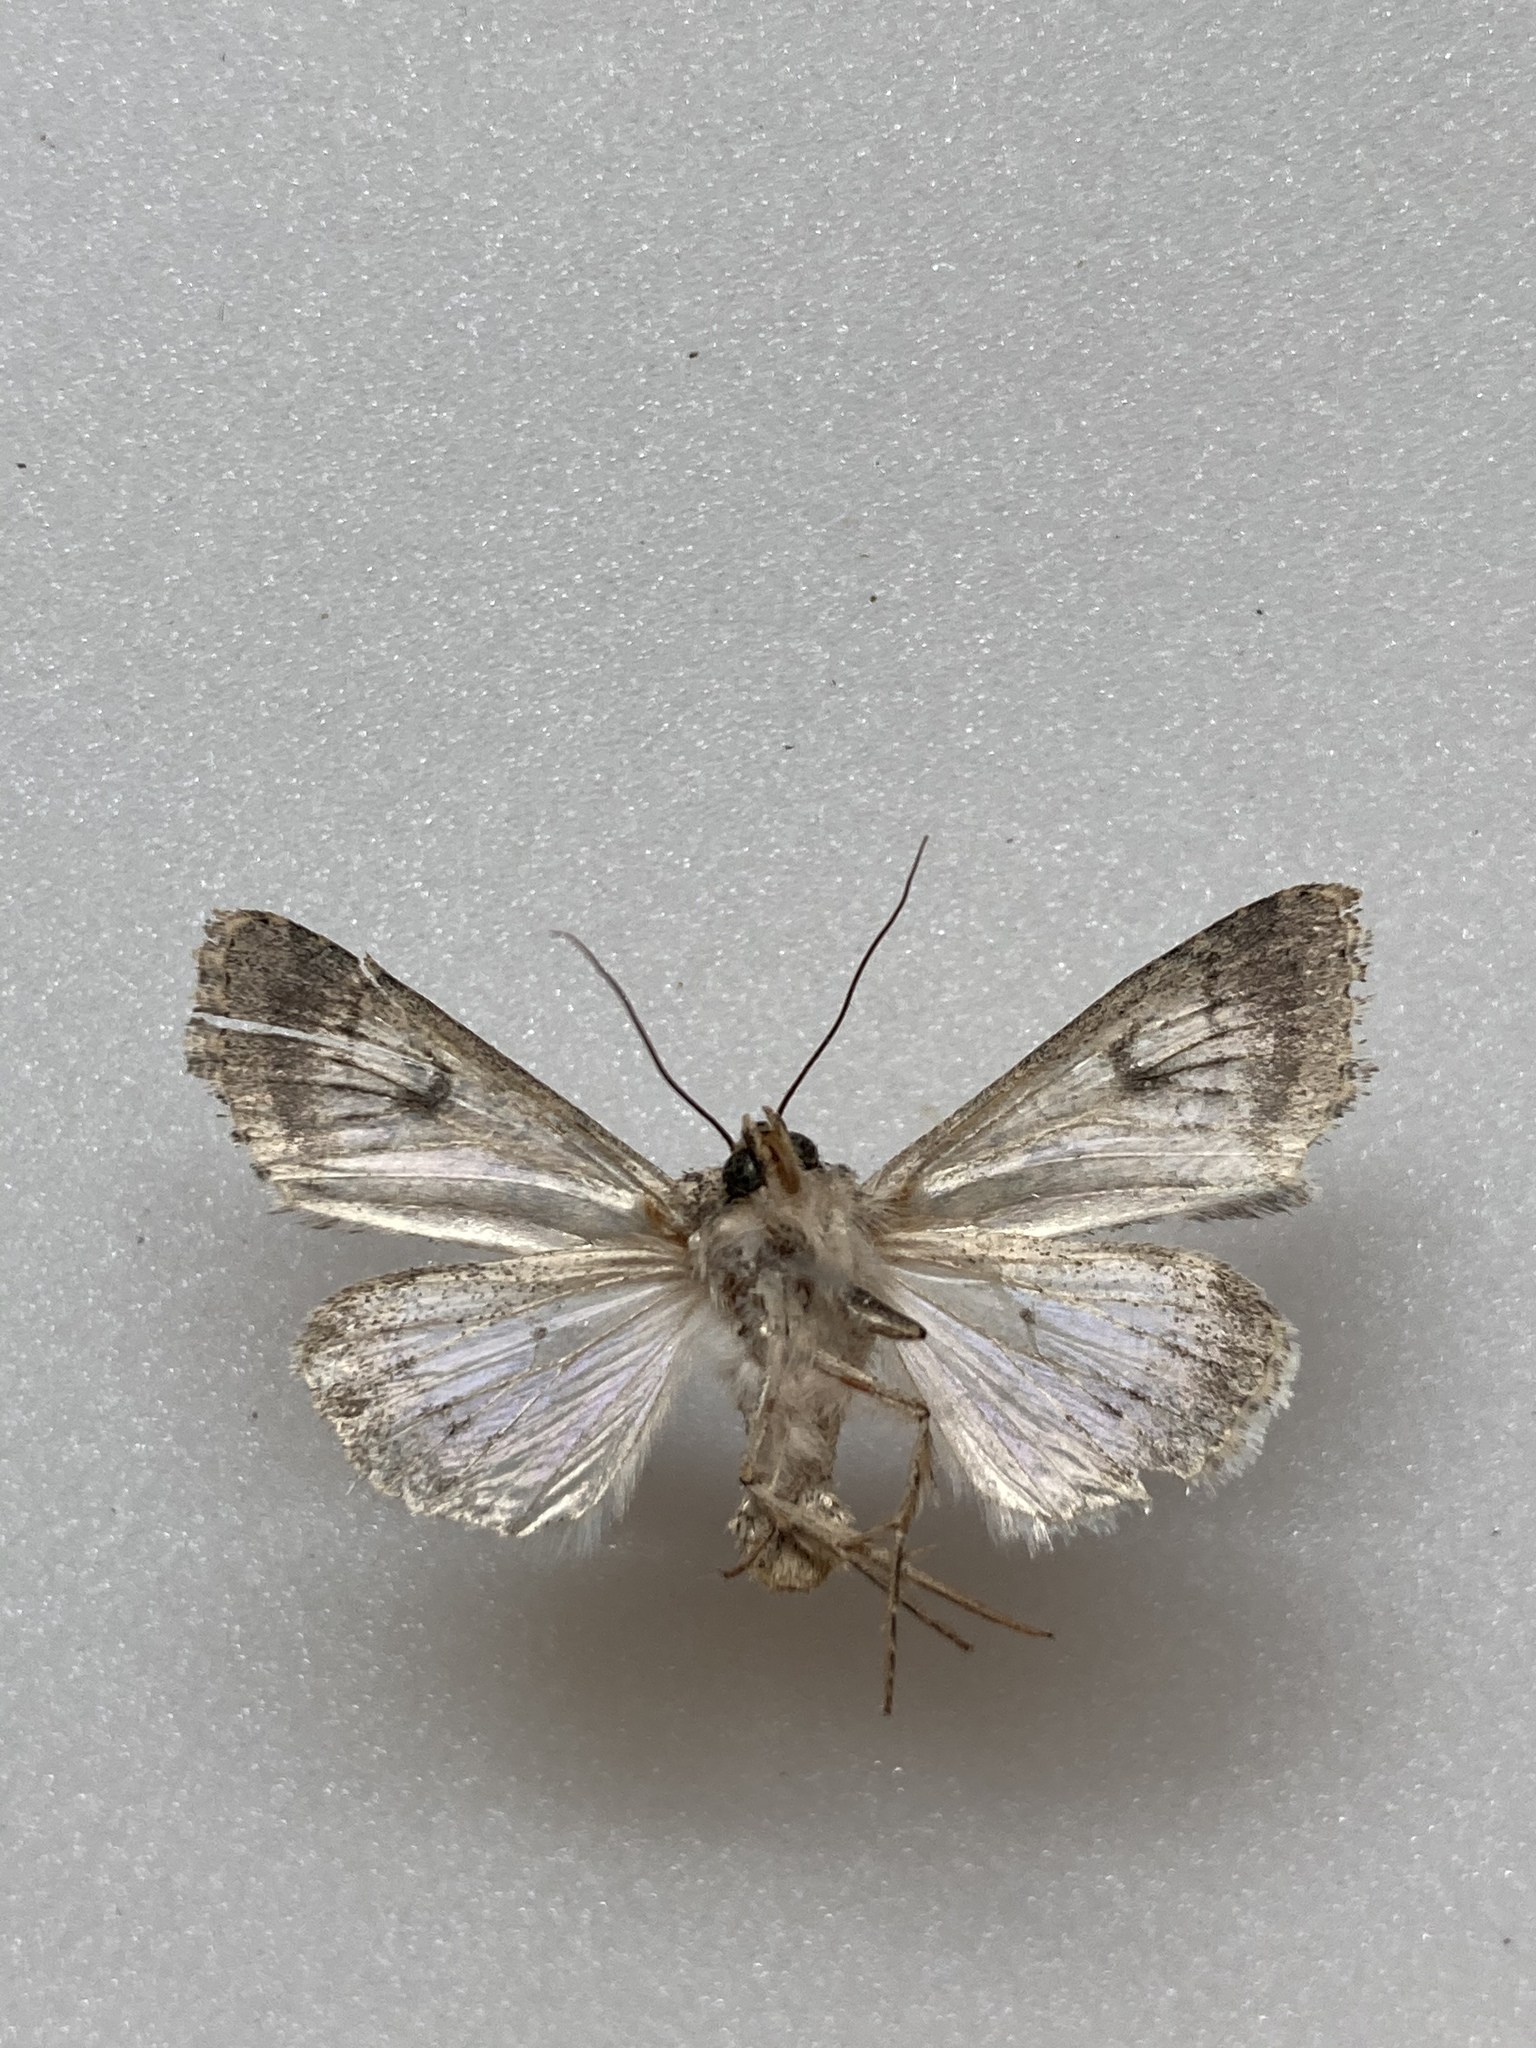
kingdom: Animalia
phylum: Arthropoda
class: Insecta
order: Lepidoptera
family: Noctuidae
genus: Scotogramma
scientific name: Scotogramma yakima
